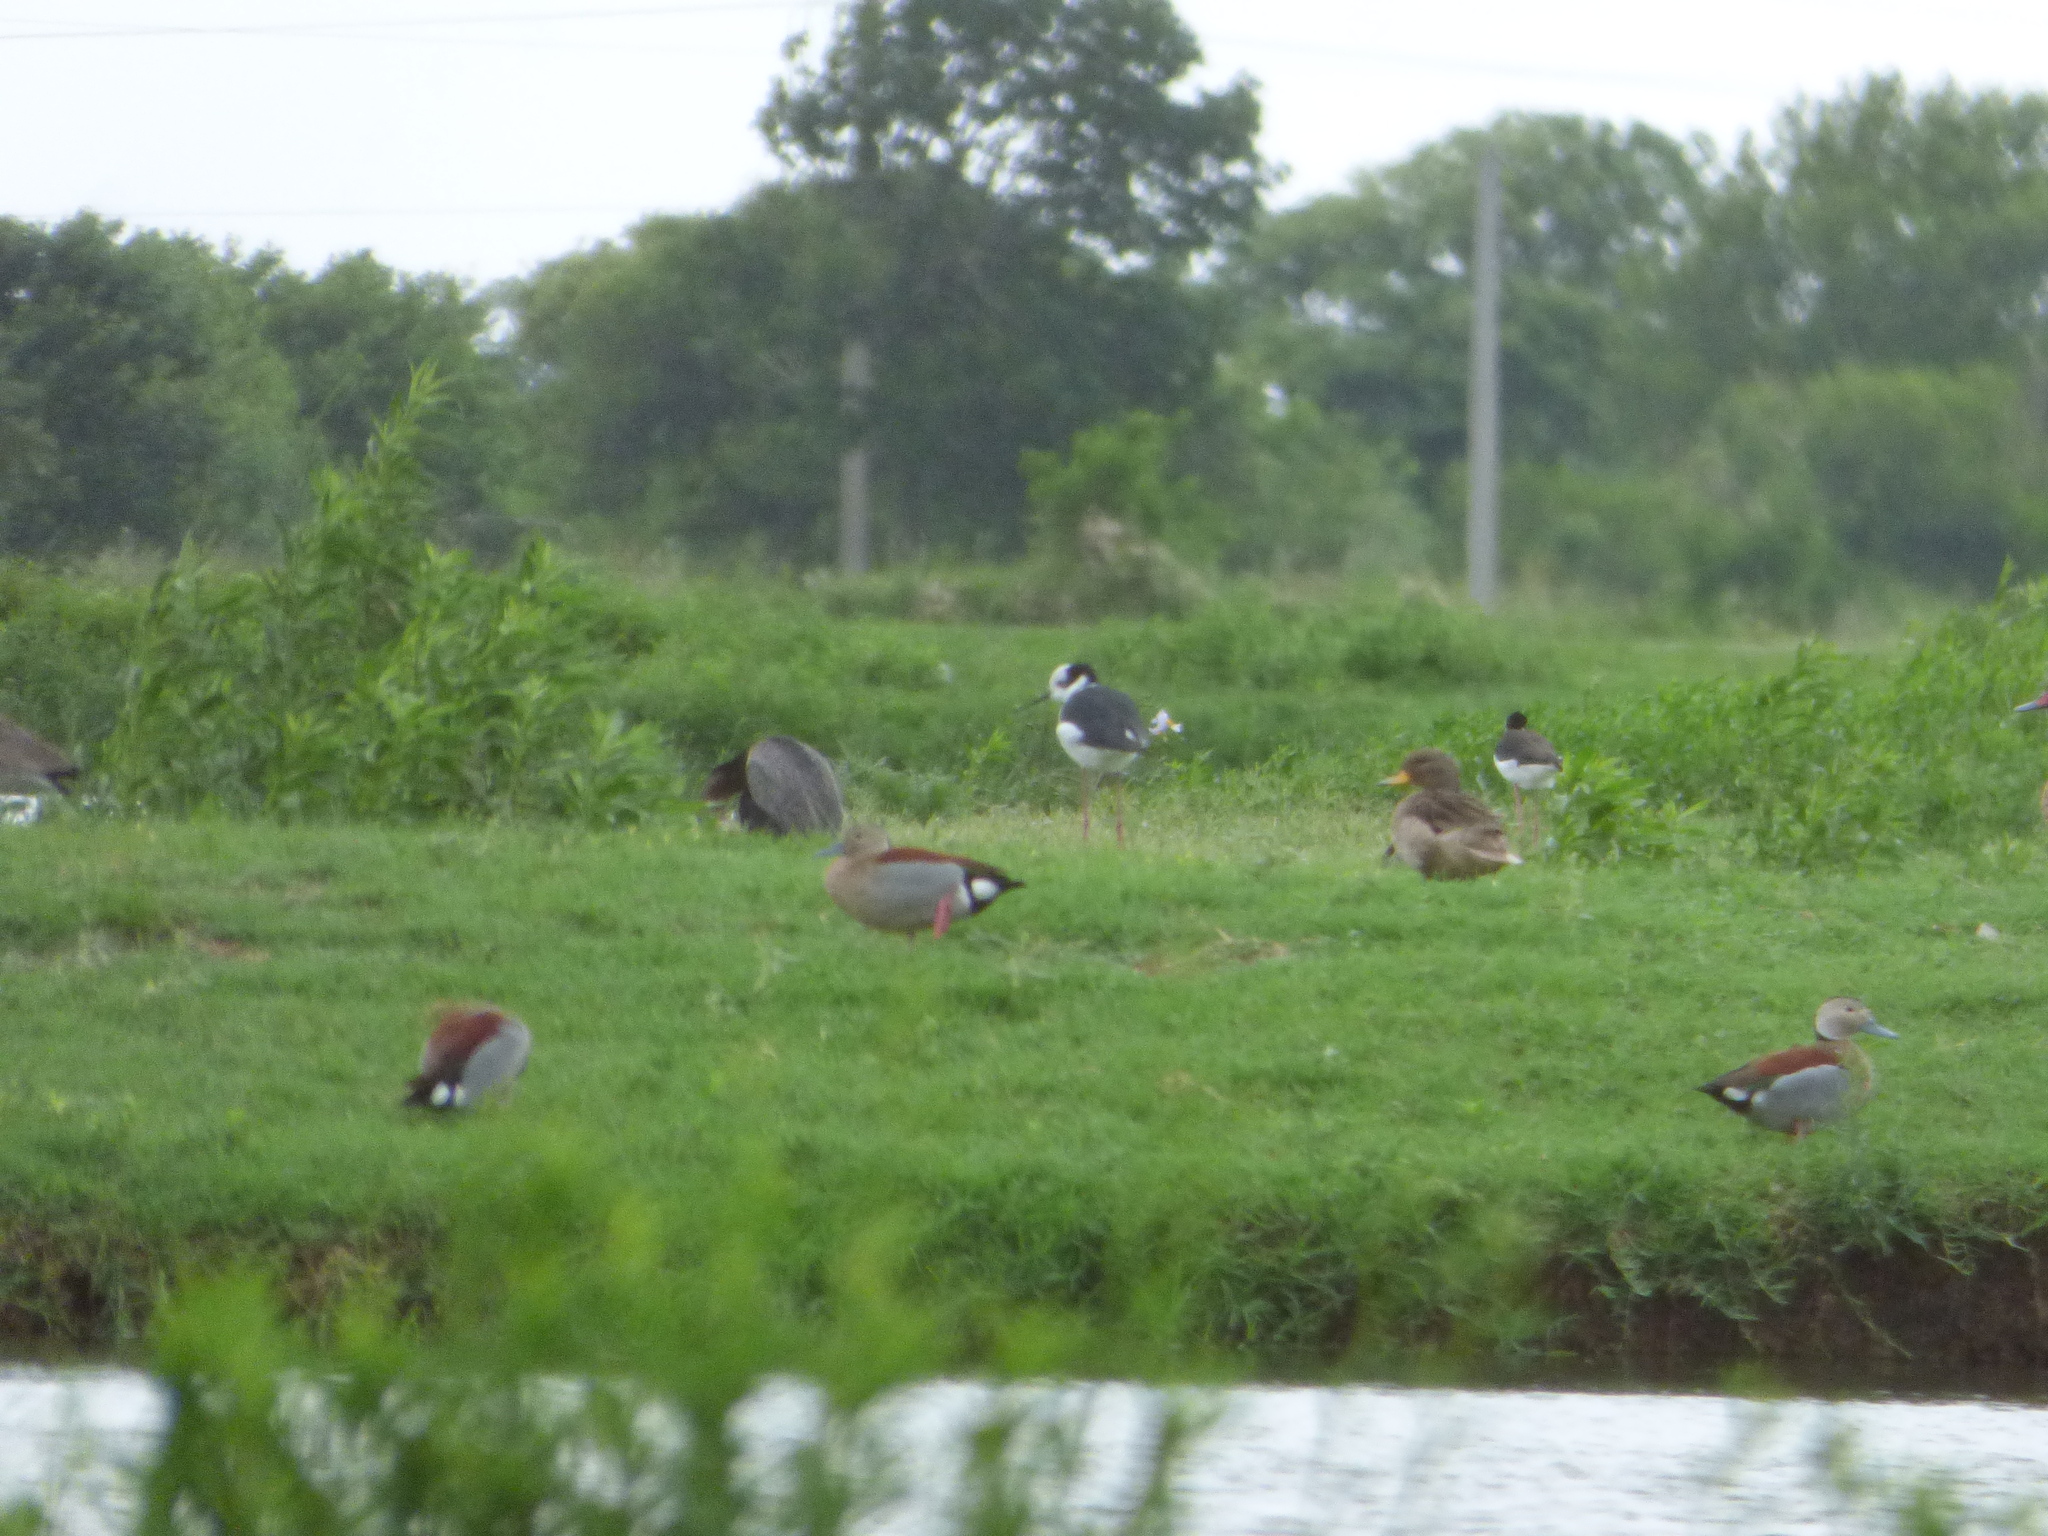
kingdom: Animalia
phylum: Chordata
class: Aves
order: Charadriiformes
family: Recurvirostridae
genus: Himantopus
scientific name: Himantopus mexicanus
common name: Black-necked stilt
